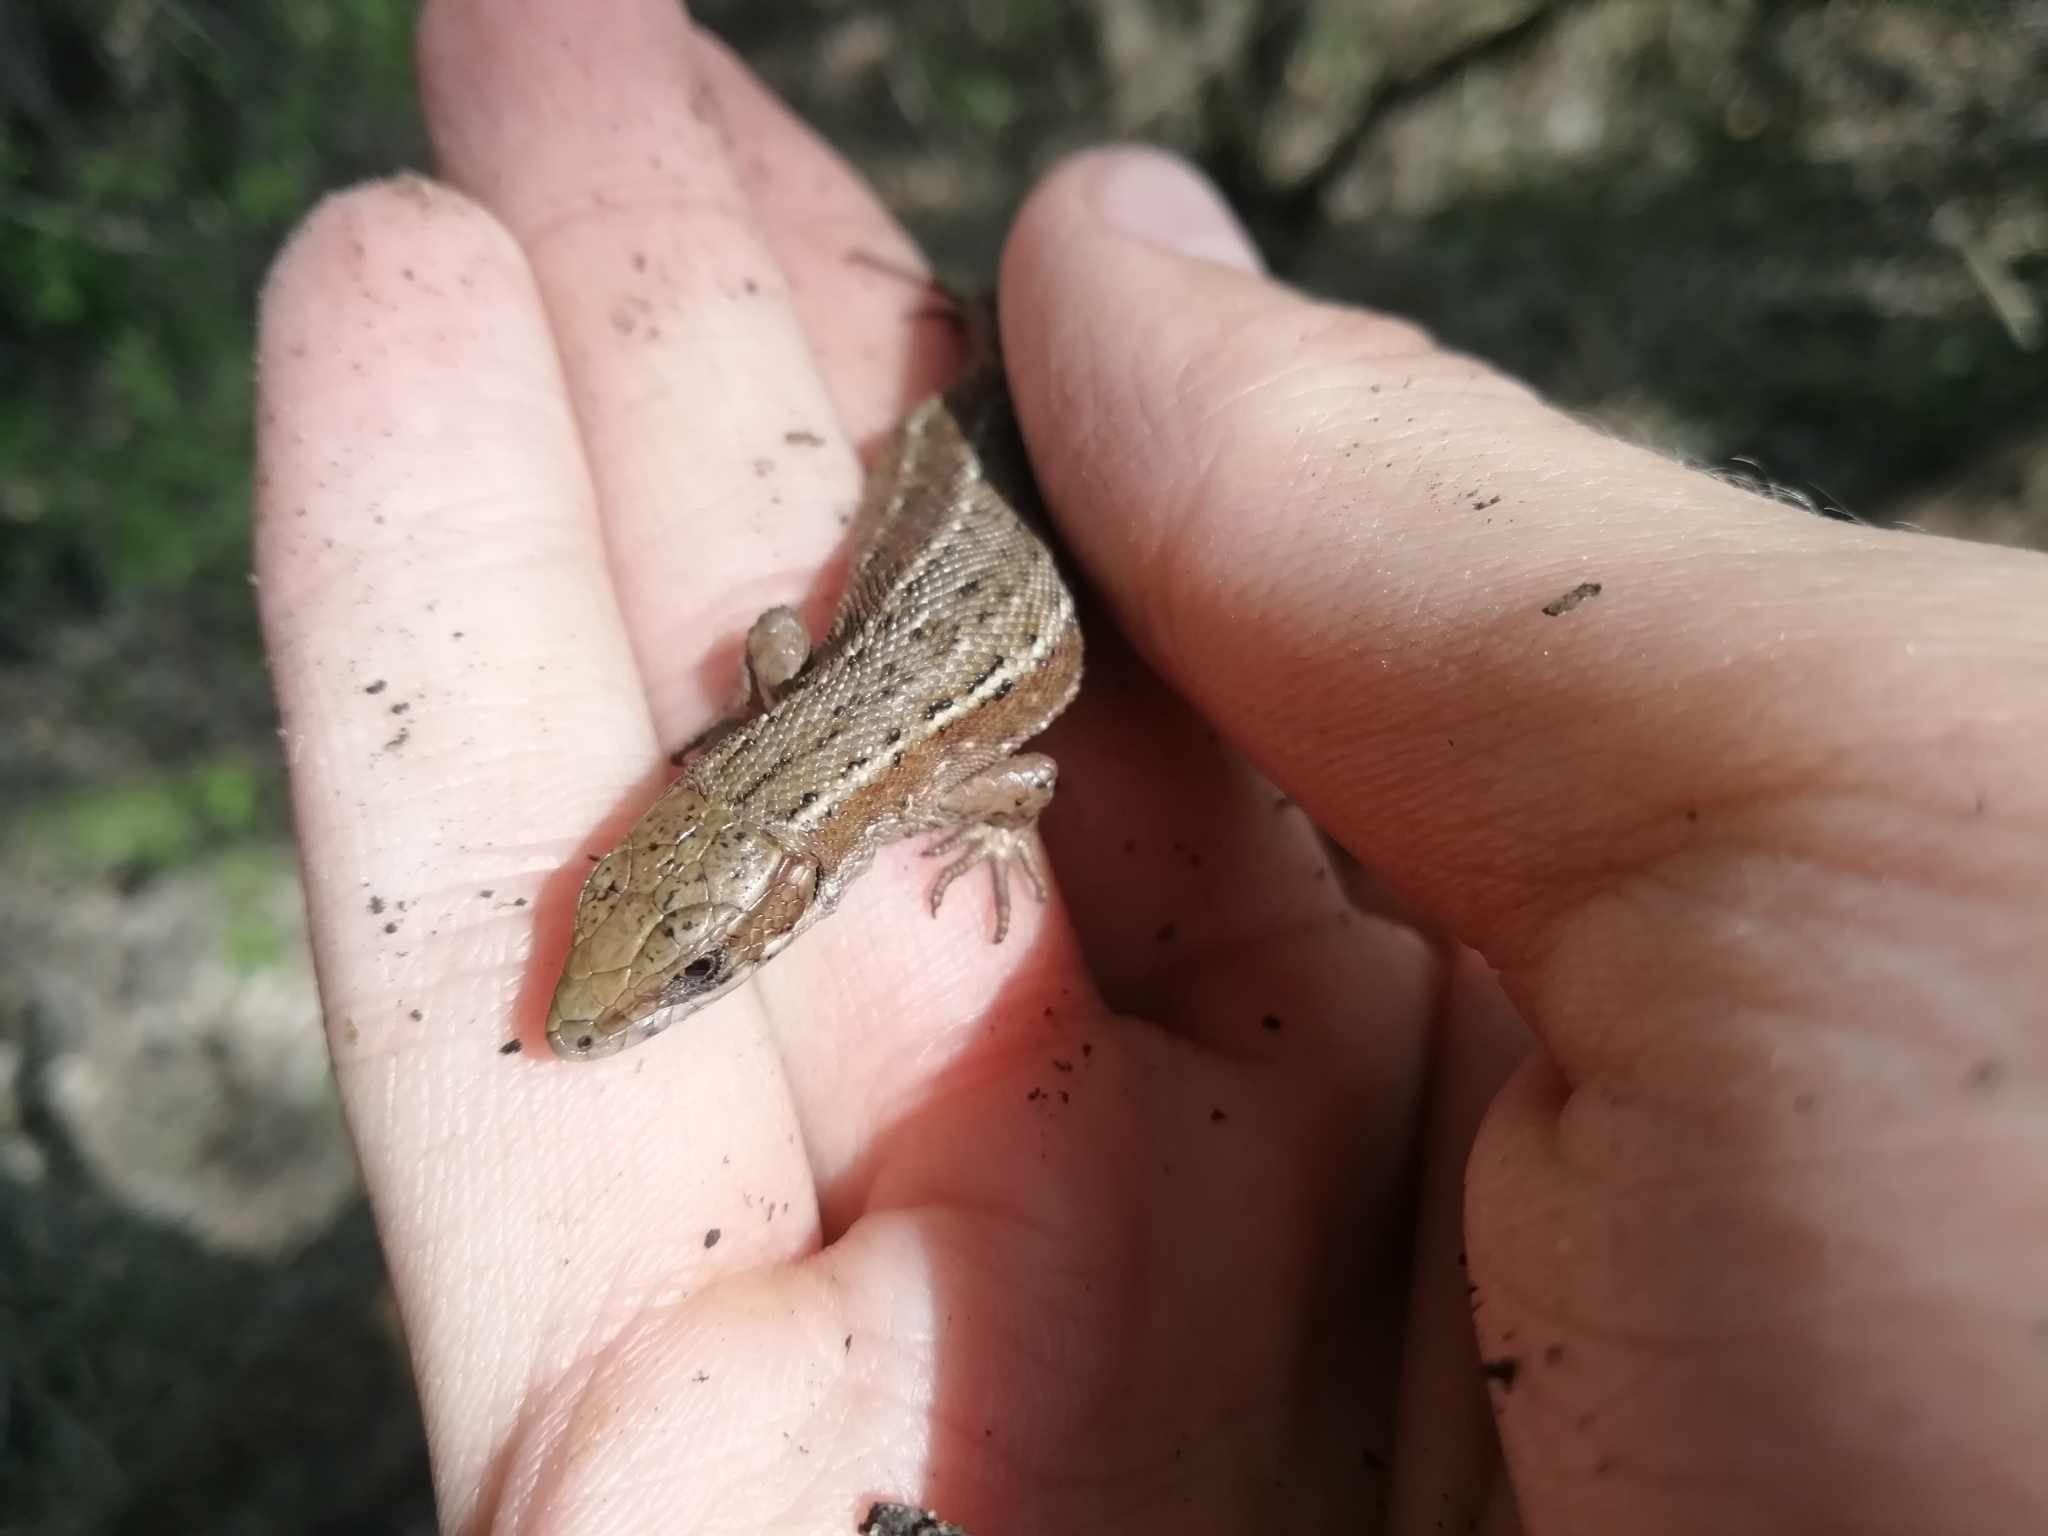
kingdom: Animalia
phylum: Chordata
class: Squamata
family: Lacertidae
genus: Zootoca
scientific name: Zootoca vivipara
